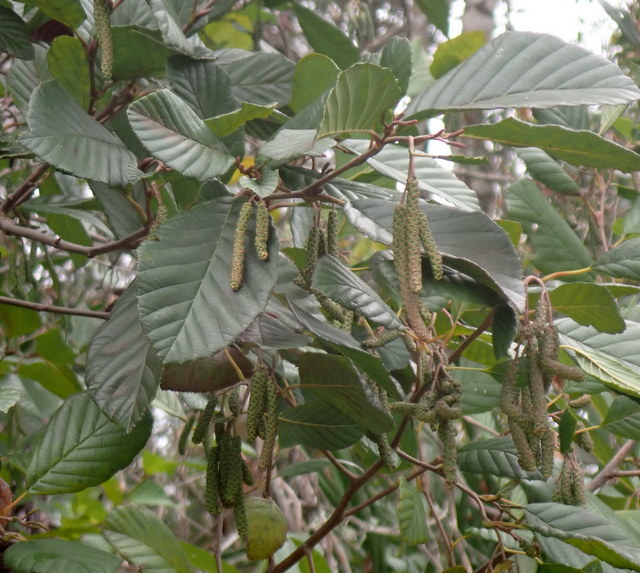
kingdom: Plantae
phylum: Tracheophyta
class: Magnoliopsida
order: Fagales
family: Betulaceae
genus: Alnus
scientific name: Alnus serrulata
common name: Hazel alder
